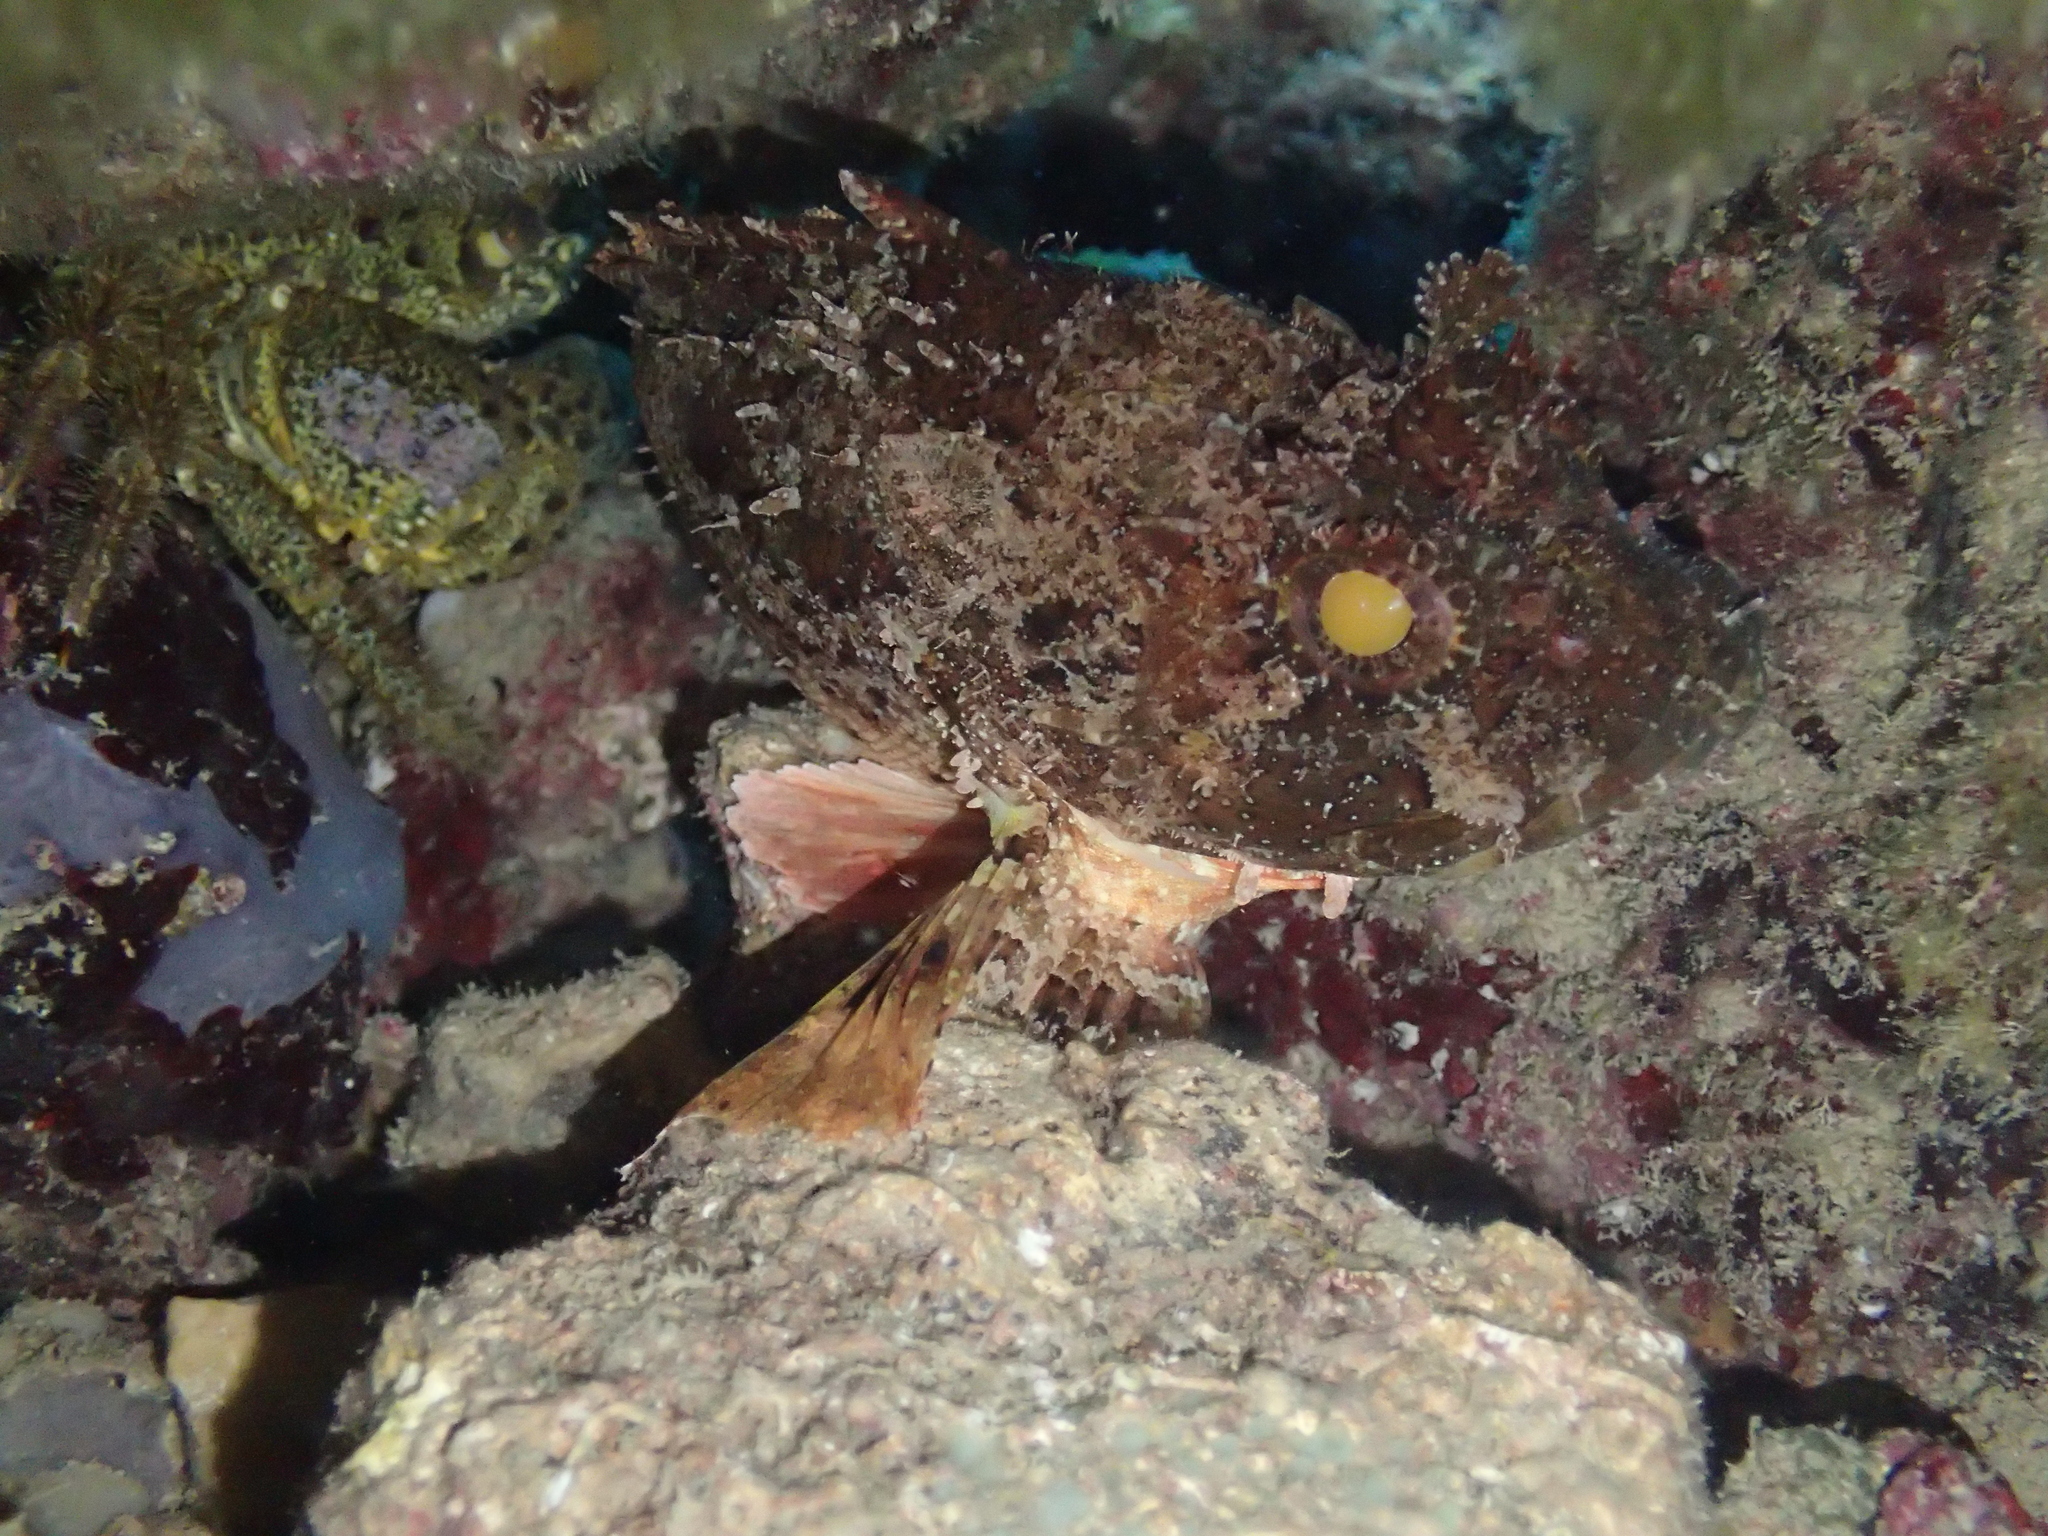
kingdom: Animalia
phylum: Chordata
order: Scorpaeniformes
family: Scorpaenidae
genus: Scorpaena
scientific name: Scorpaena porcus
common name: Black scorpionfish
